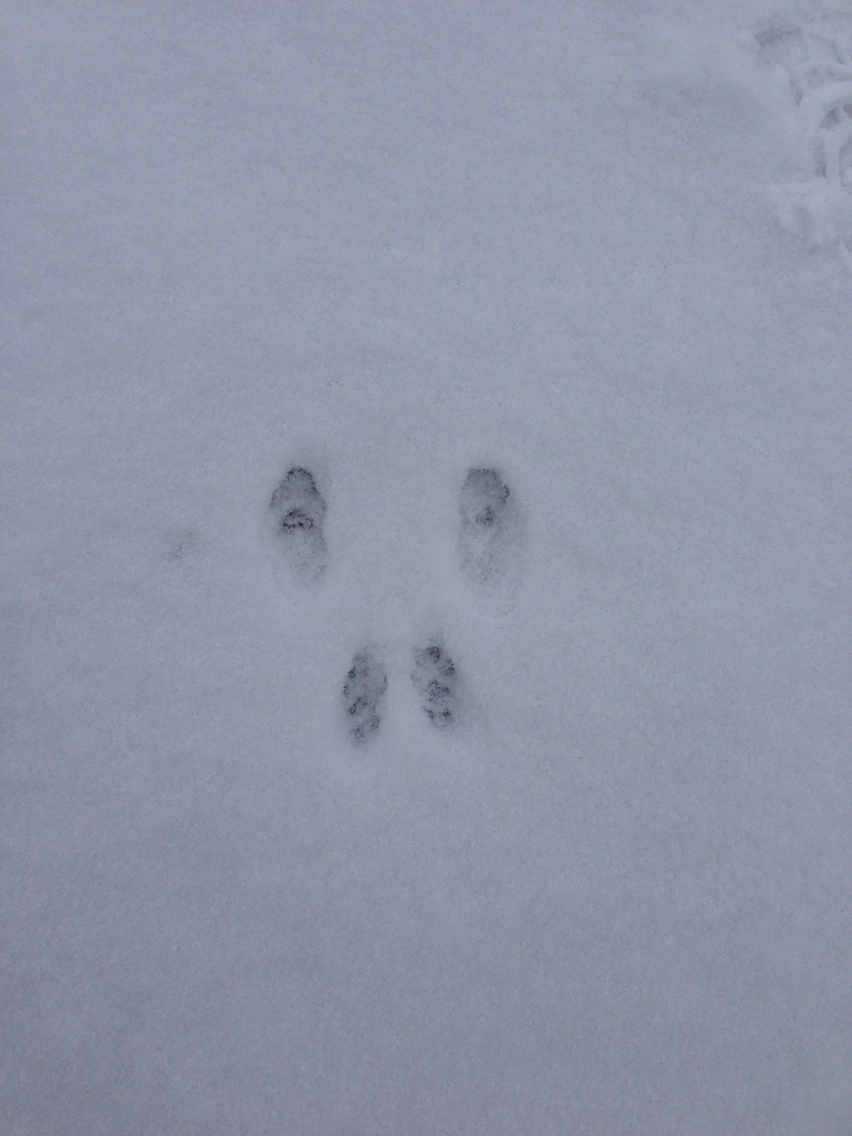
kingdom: Animalia
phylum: Chordata
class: Mammalia
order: Rodentia
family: Sciuridae
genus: Sciurus
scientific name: Sciurus carolinensis
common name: Eastern gray squirrel
